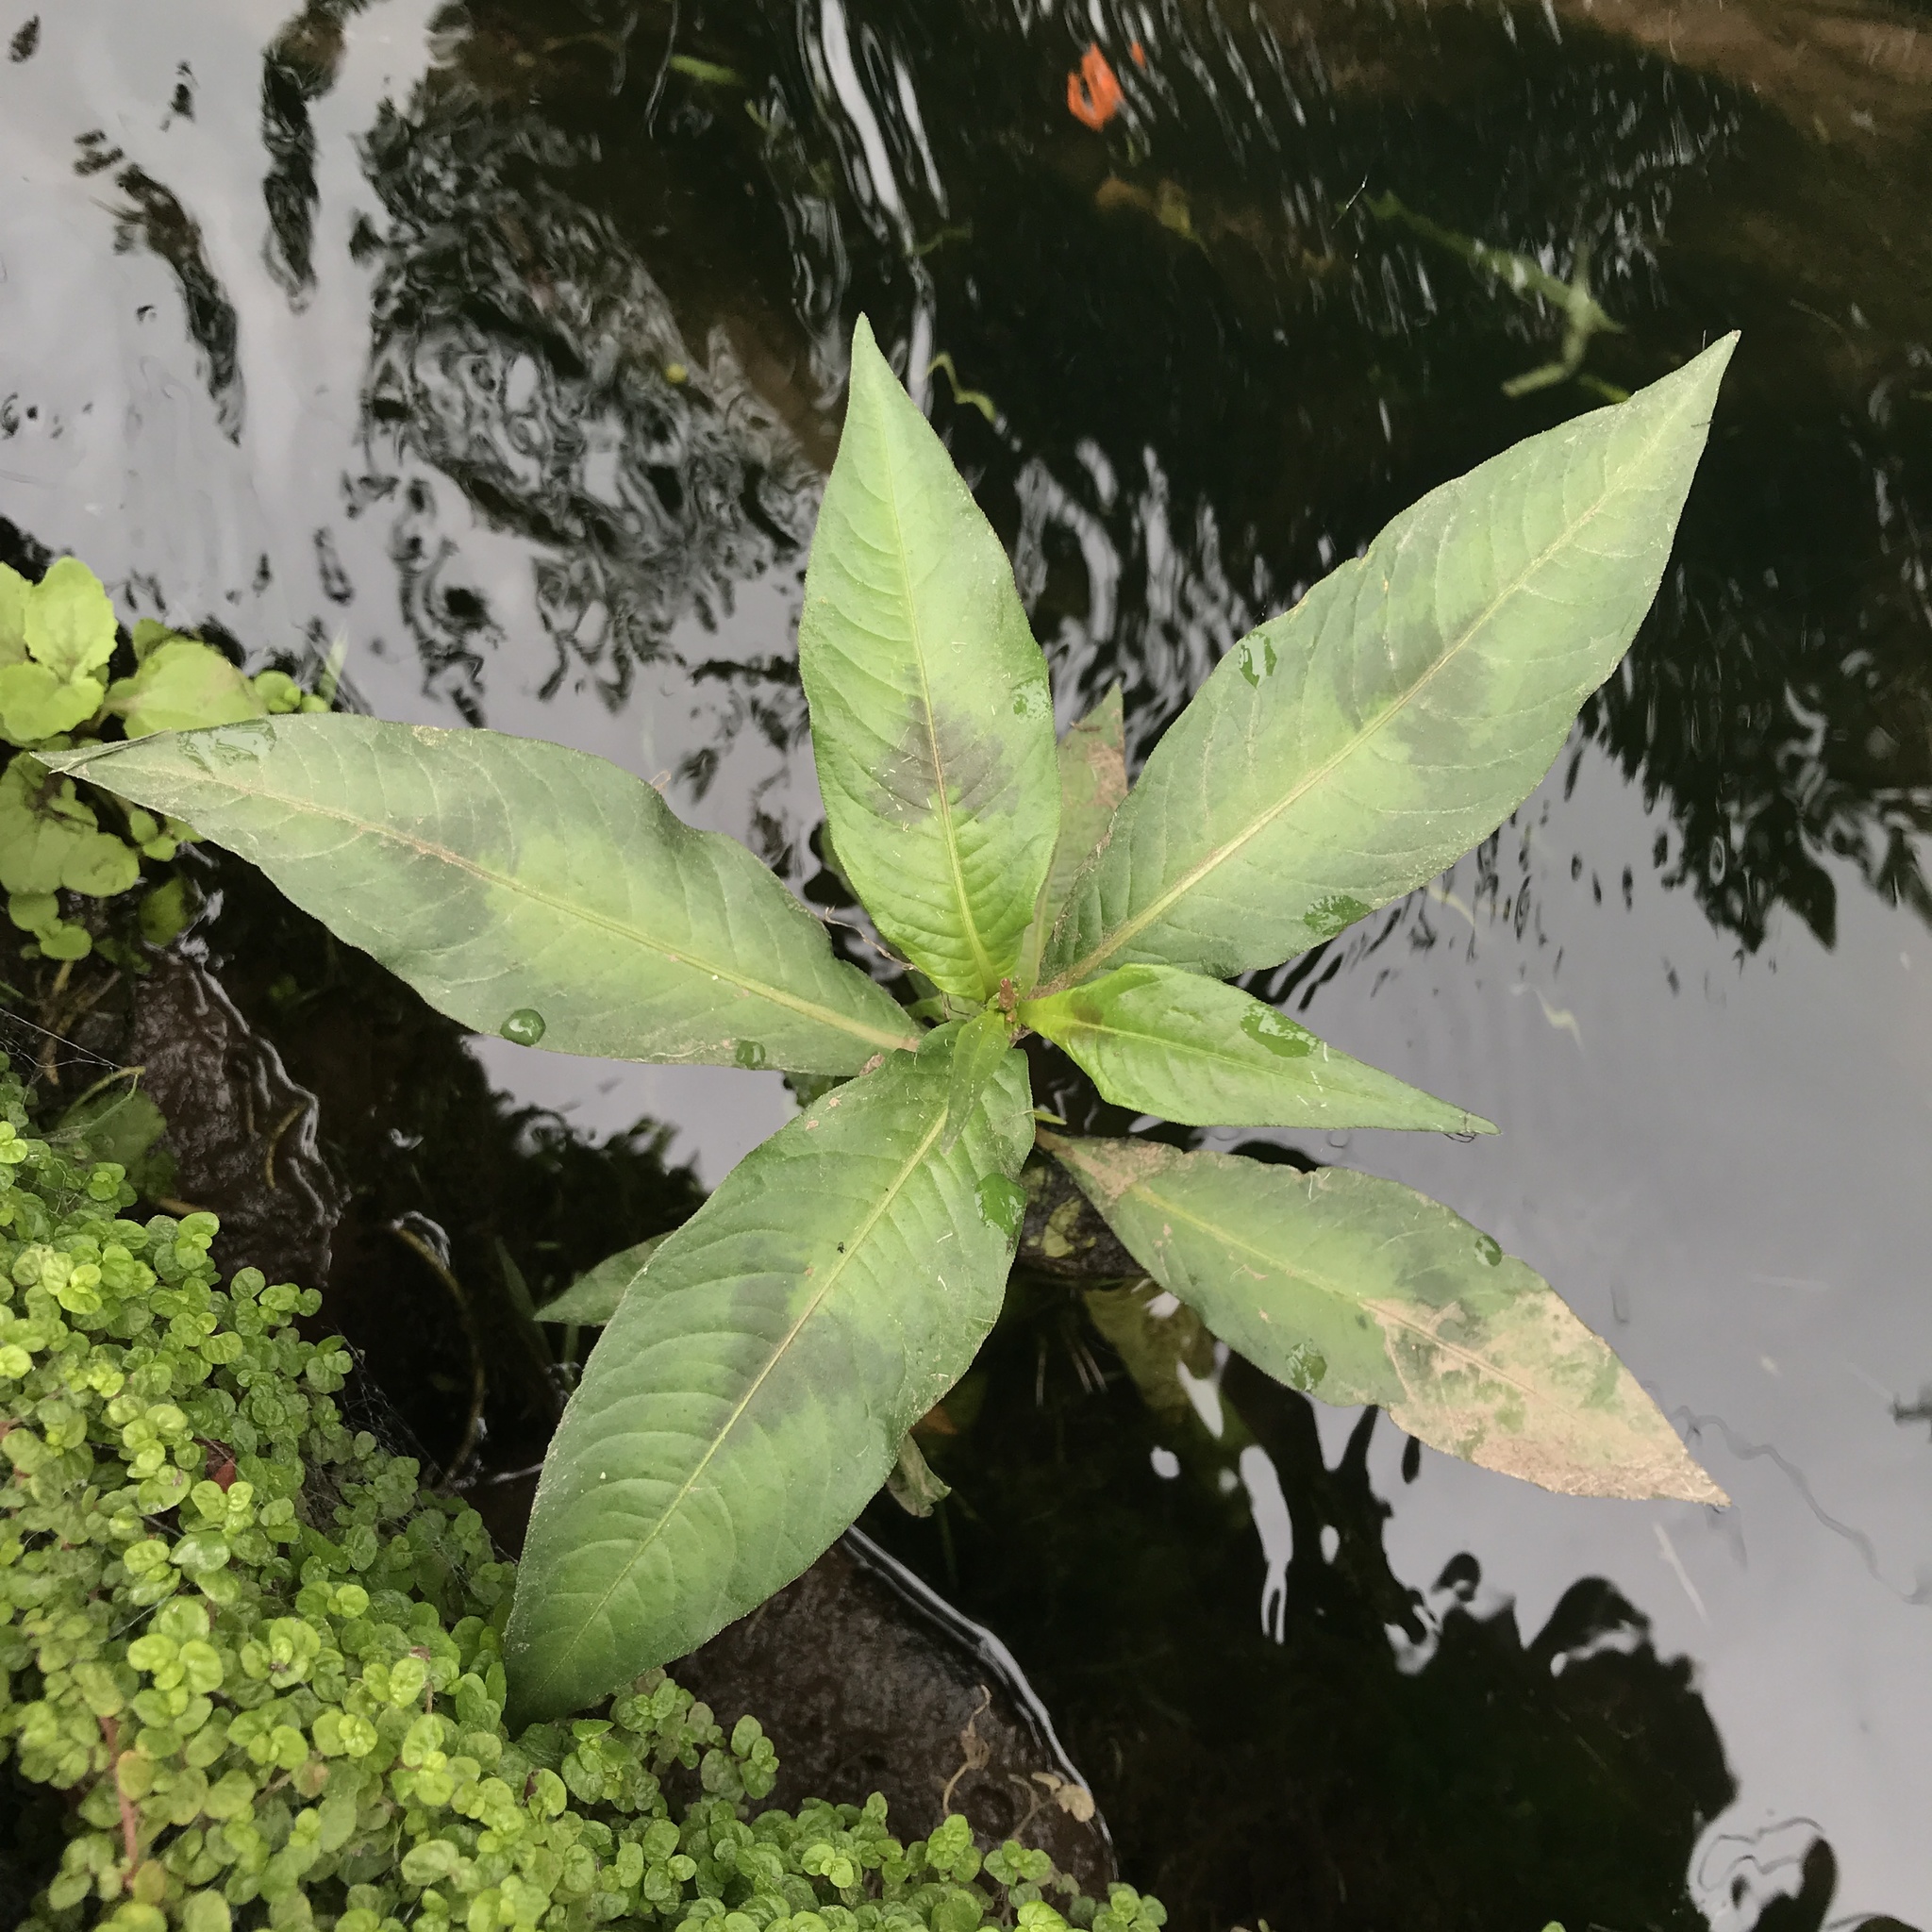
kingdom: Plantae
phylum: Tracheophyta
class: Magnoliopsida
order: Caryophyllales
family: Polygonaceae
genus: Persicaria
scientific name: Persicaria maculosa
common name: Redshank
